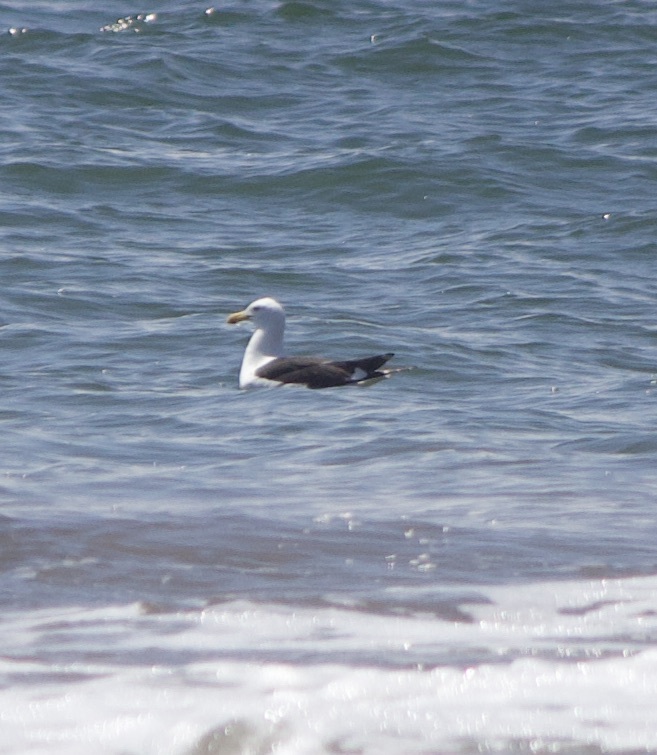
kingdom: Animalia
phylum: Chordata
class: Aves
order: Charadriiformes
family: Laridae
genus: Larus
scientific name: Larus dominicanus
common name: Kelp gull
